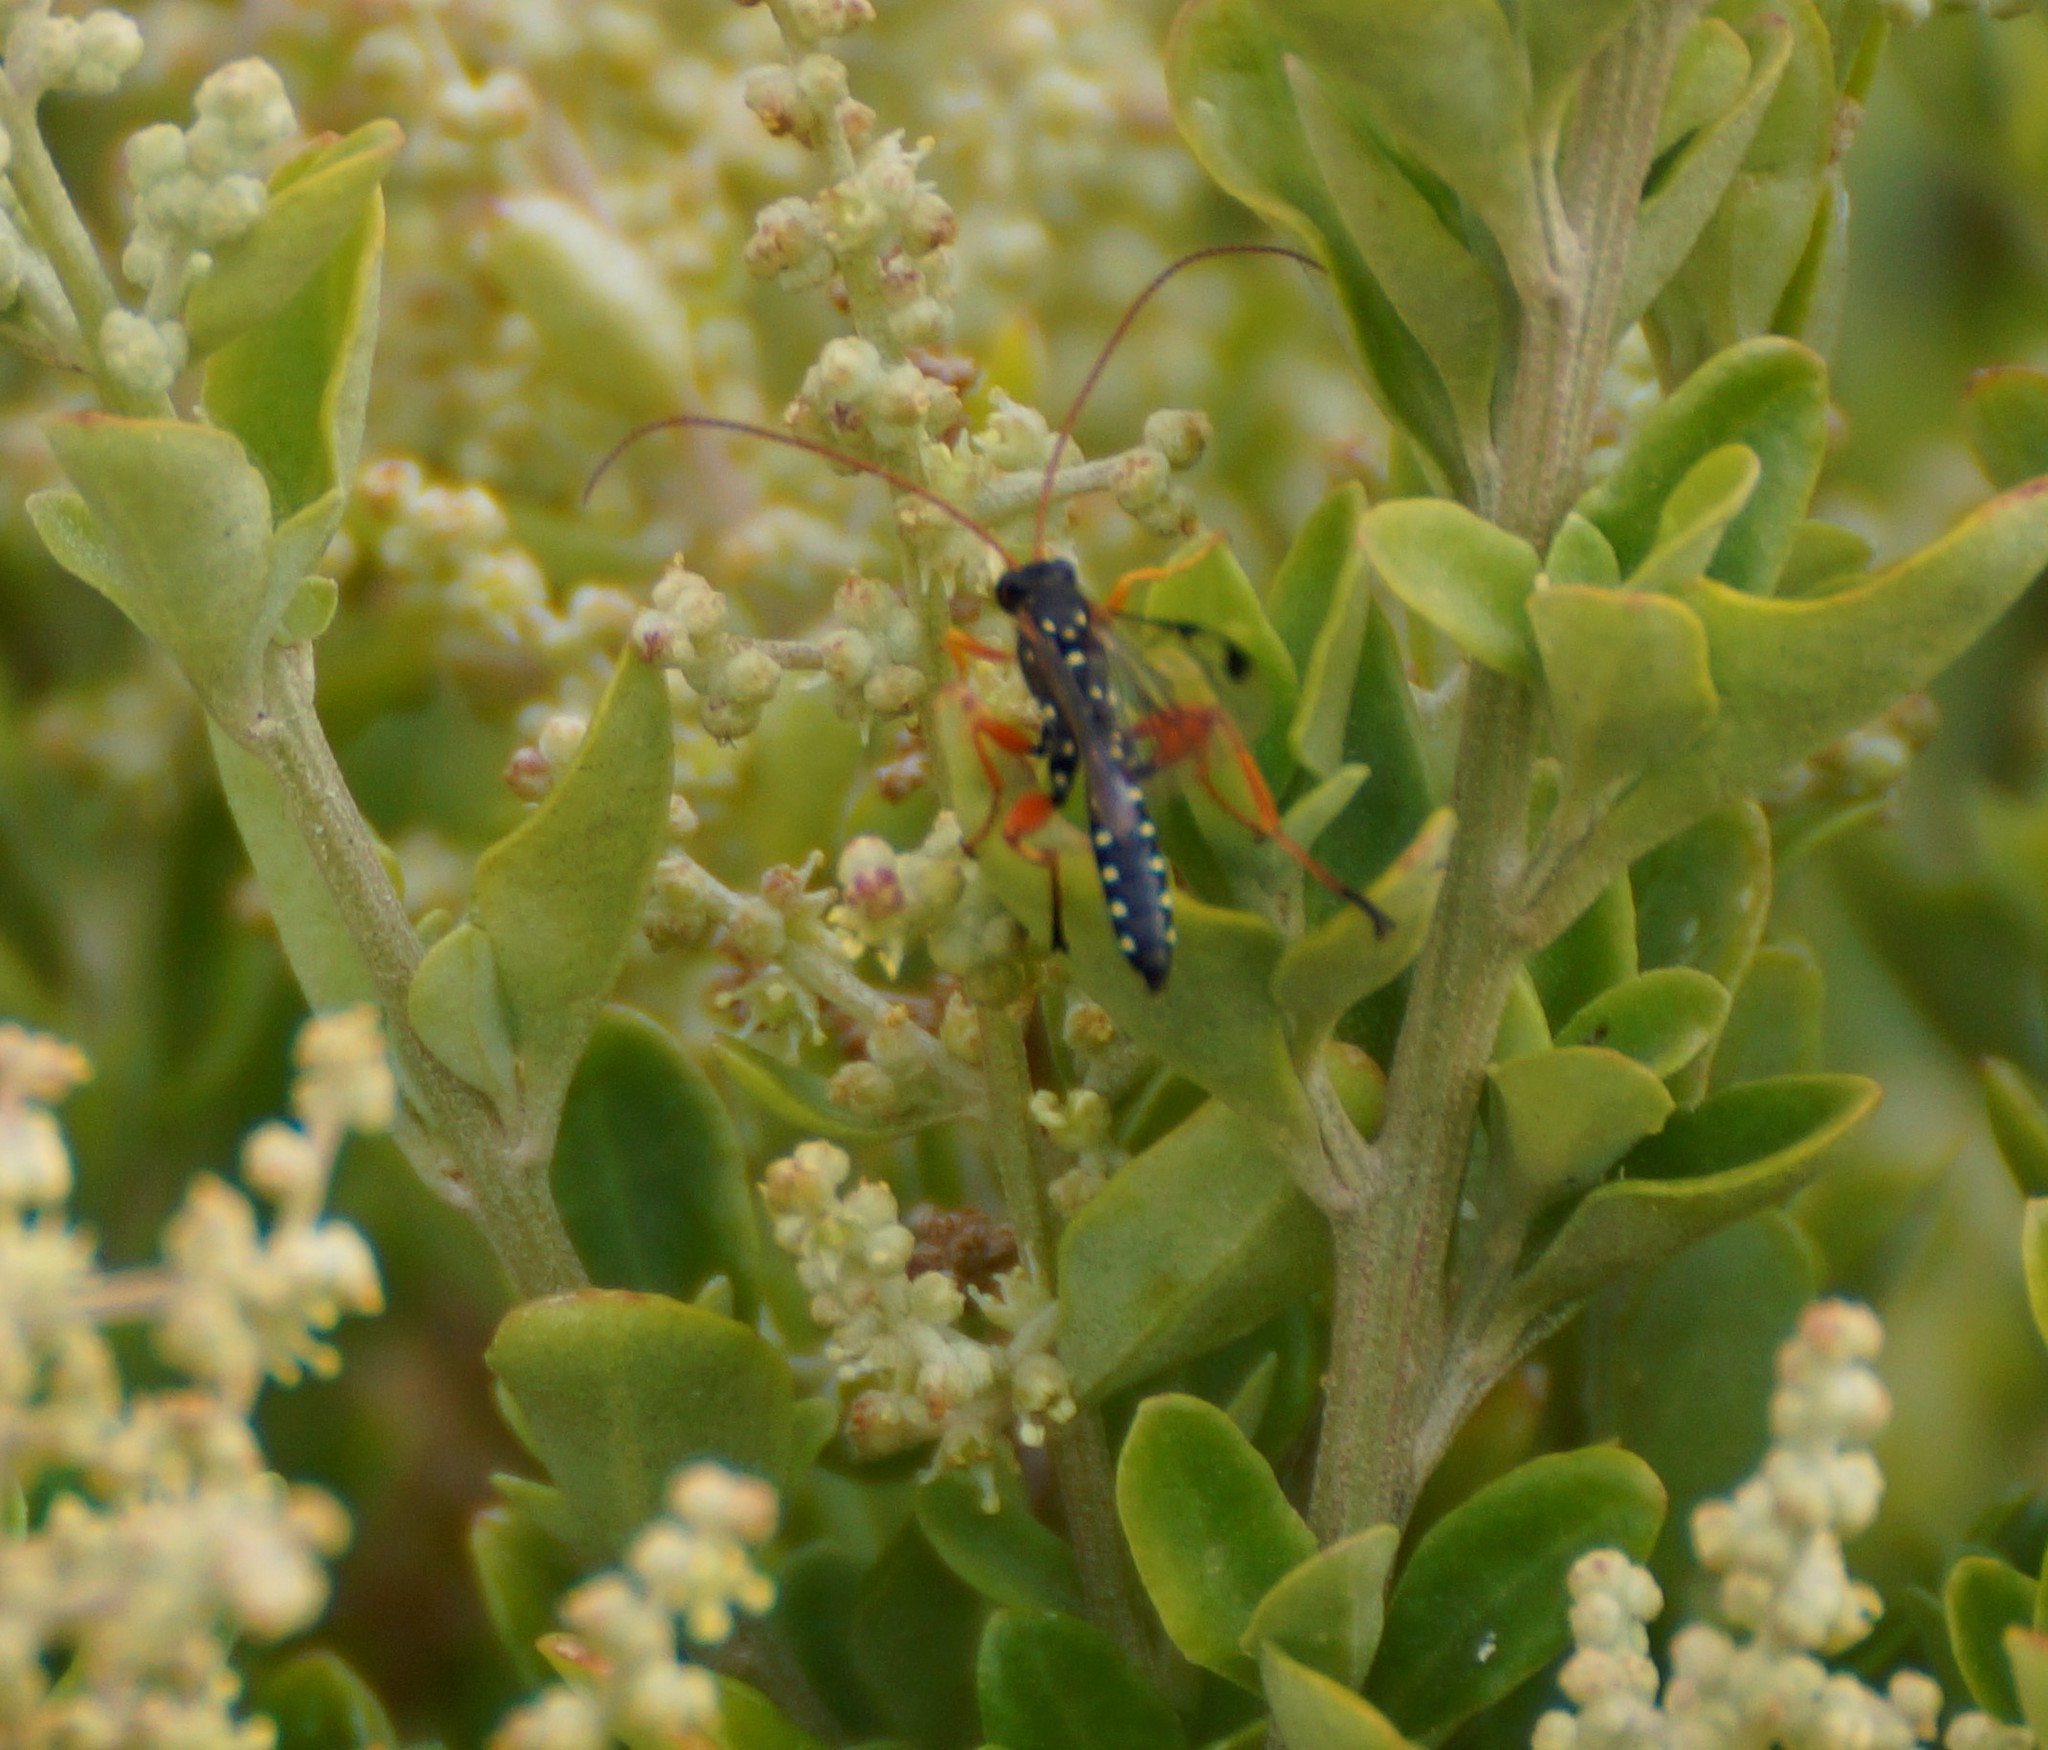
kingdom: Animalia
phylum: Arthropoda
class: Insecta
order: Hymenoptera
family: Ichneumonidae
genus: Echthromorpha
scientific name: Echthromorpha intricatoria
